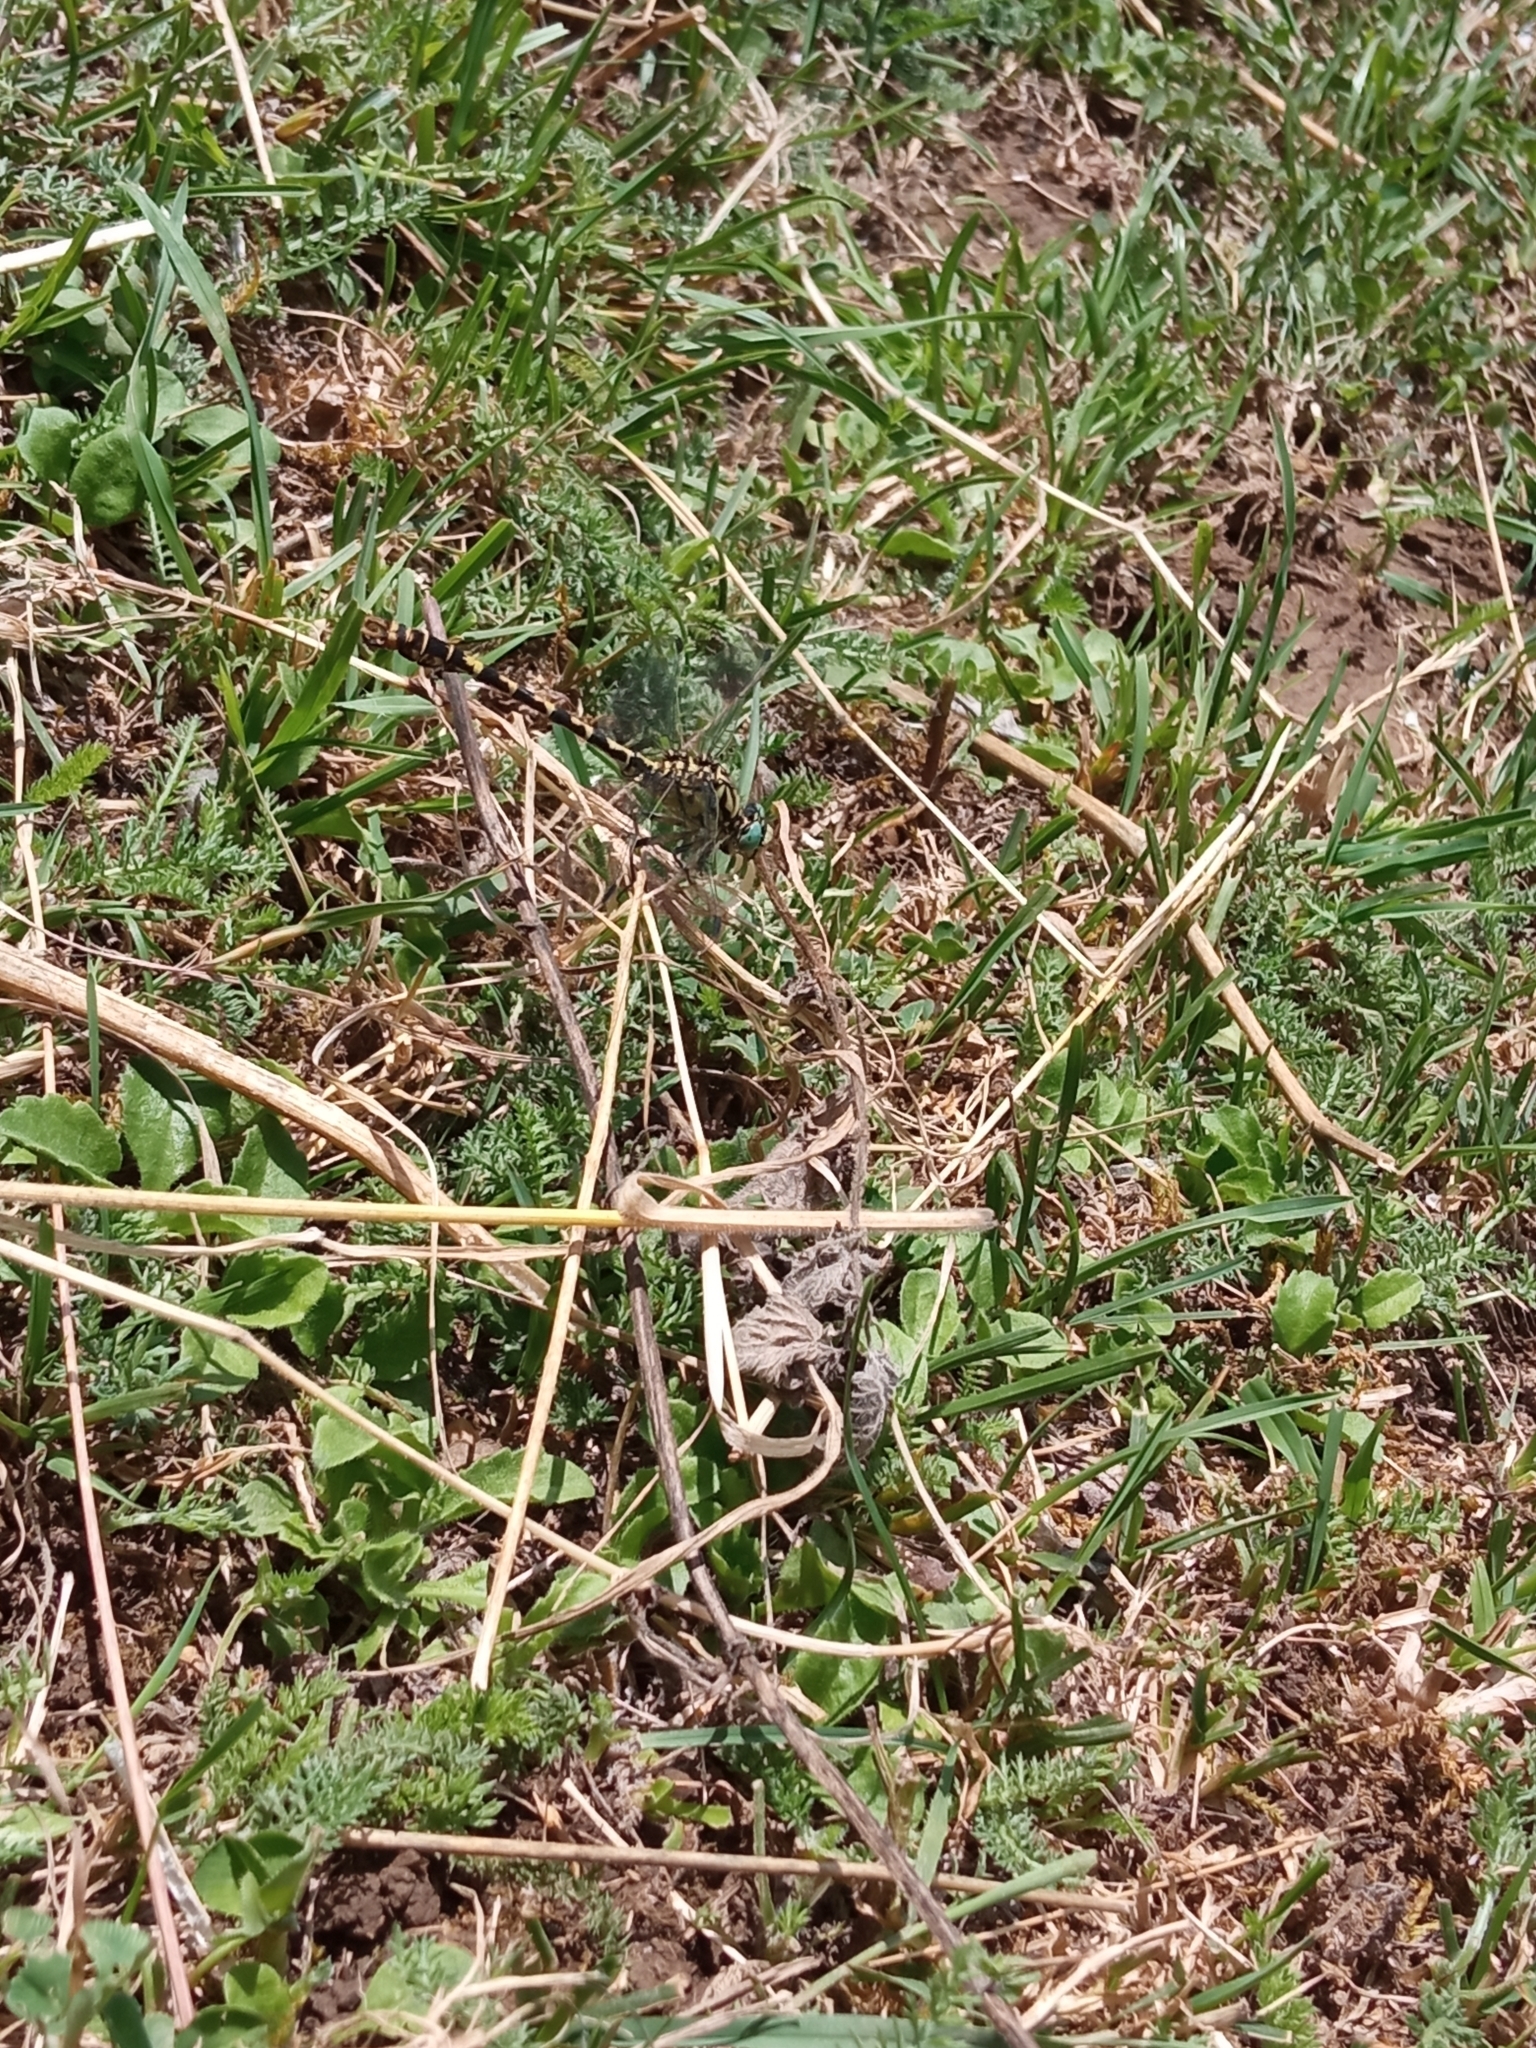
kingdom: Animalia
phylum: Arthropoda
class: Insecta
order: Odonata
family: Gomphidae
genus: Onychogomphus
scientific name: Onychogomphus forcipatus
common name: Small pincertail
